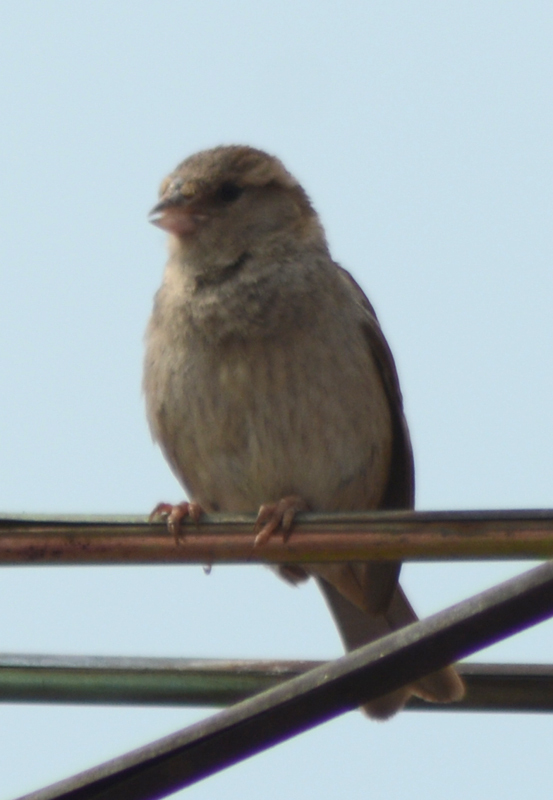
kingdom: Animalia
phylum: Chordata
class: Aves
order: Passeriformes
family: Passeridae
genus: Passer
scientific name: Passer domesticus
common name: House sparrow
